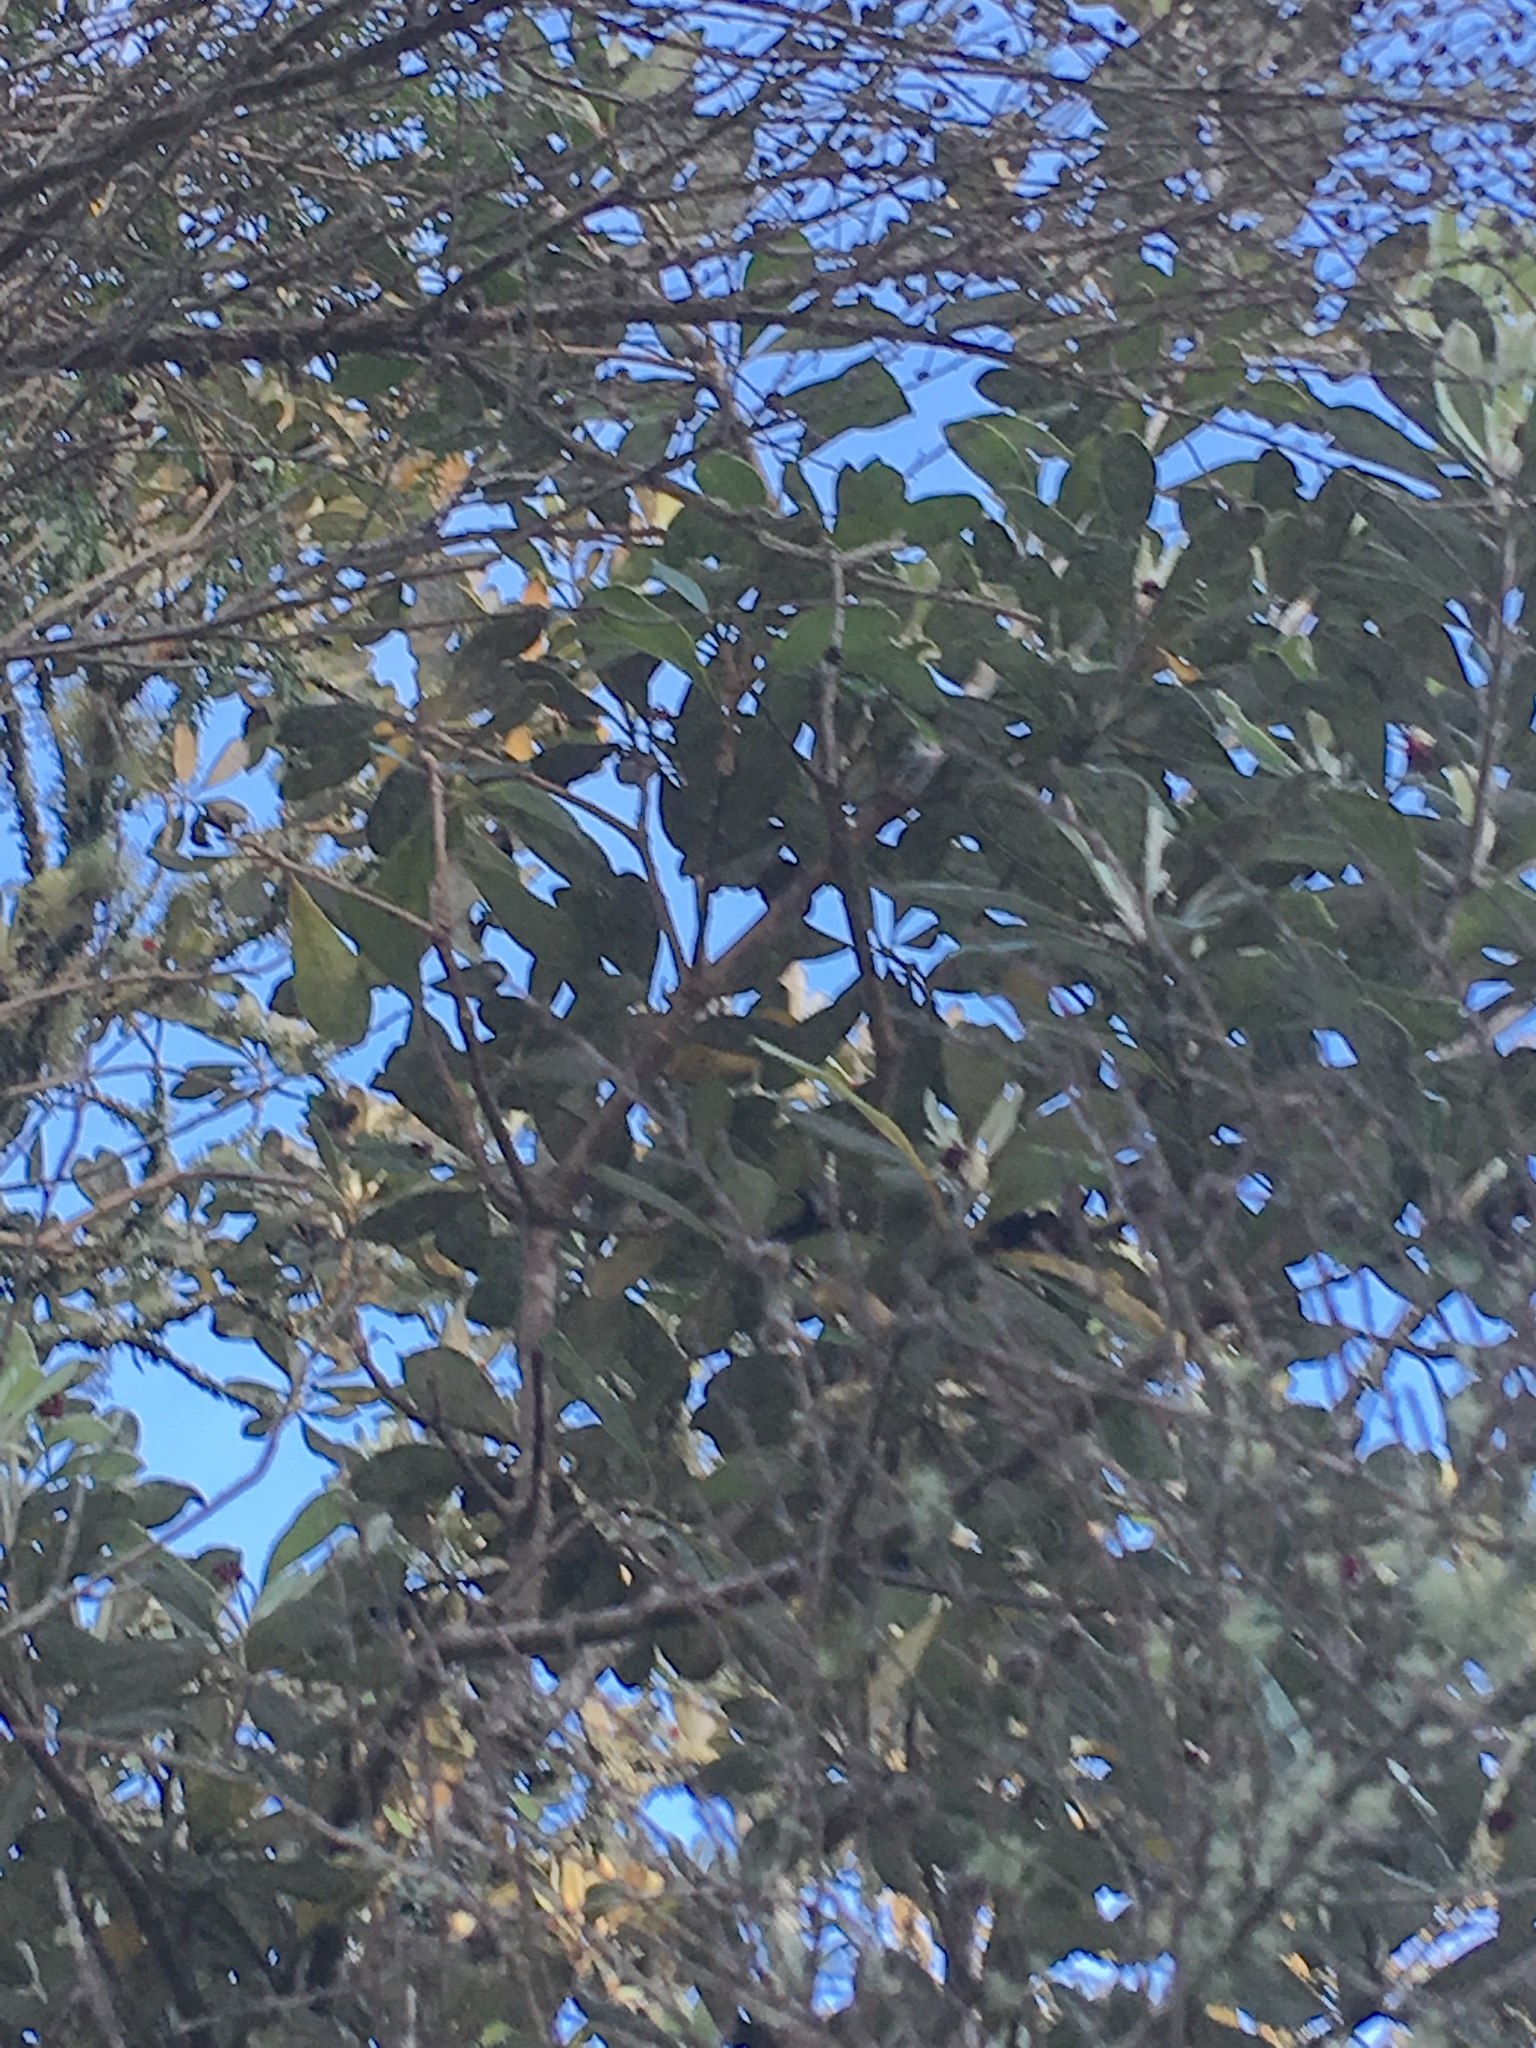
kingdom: Plantae
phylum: Tracheophyta
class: Magnoliopsida
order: Apiales
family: Pittosporaceae
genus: Pittosporum
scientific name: Pittosporum crassifolium
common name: Karo
